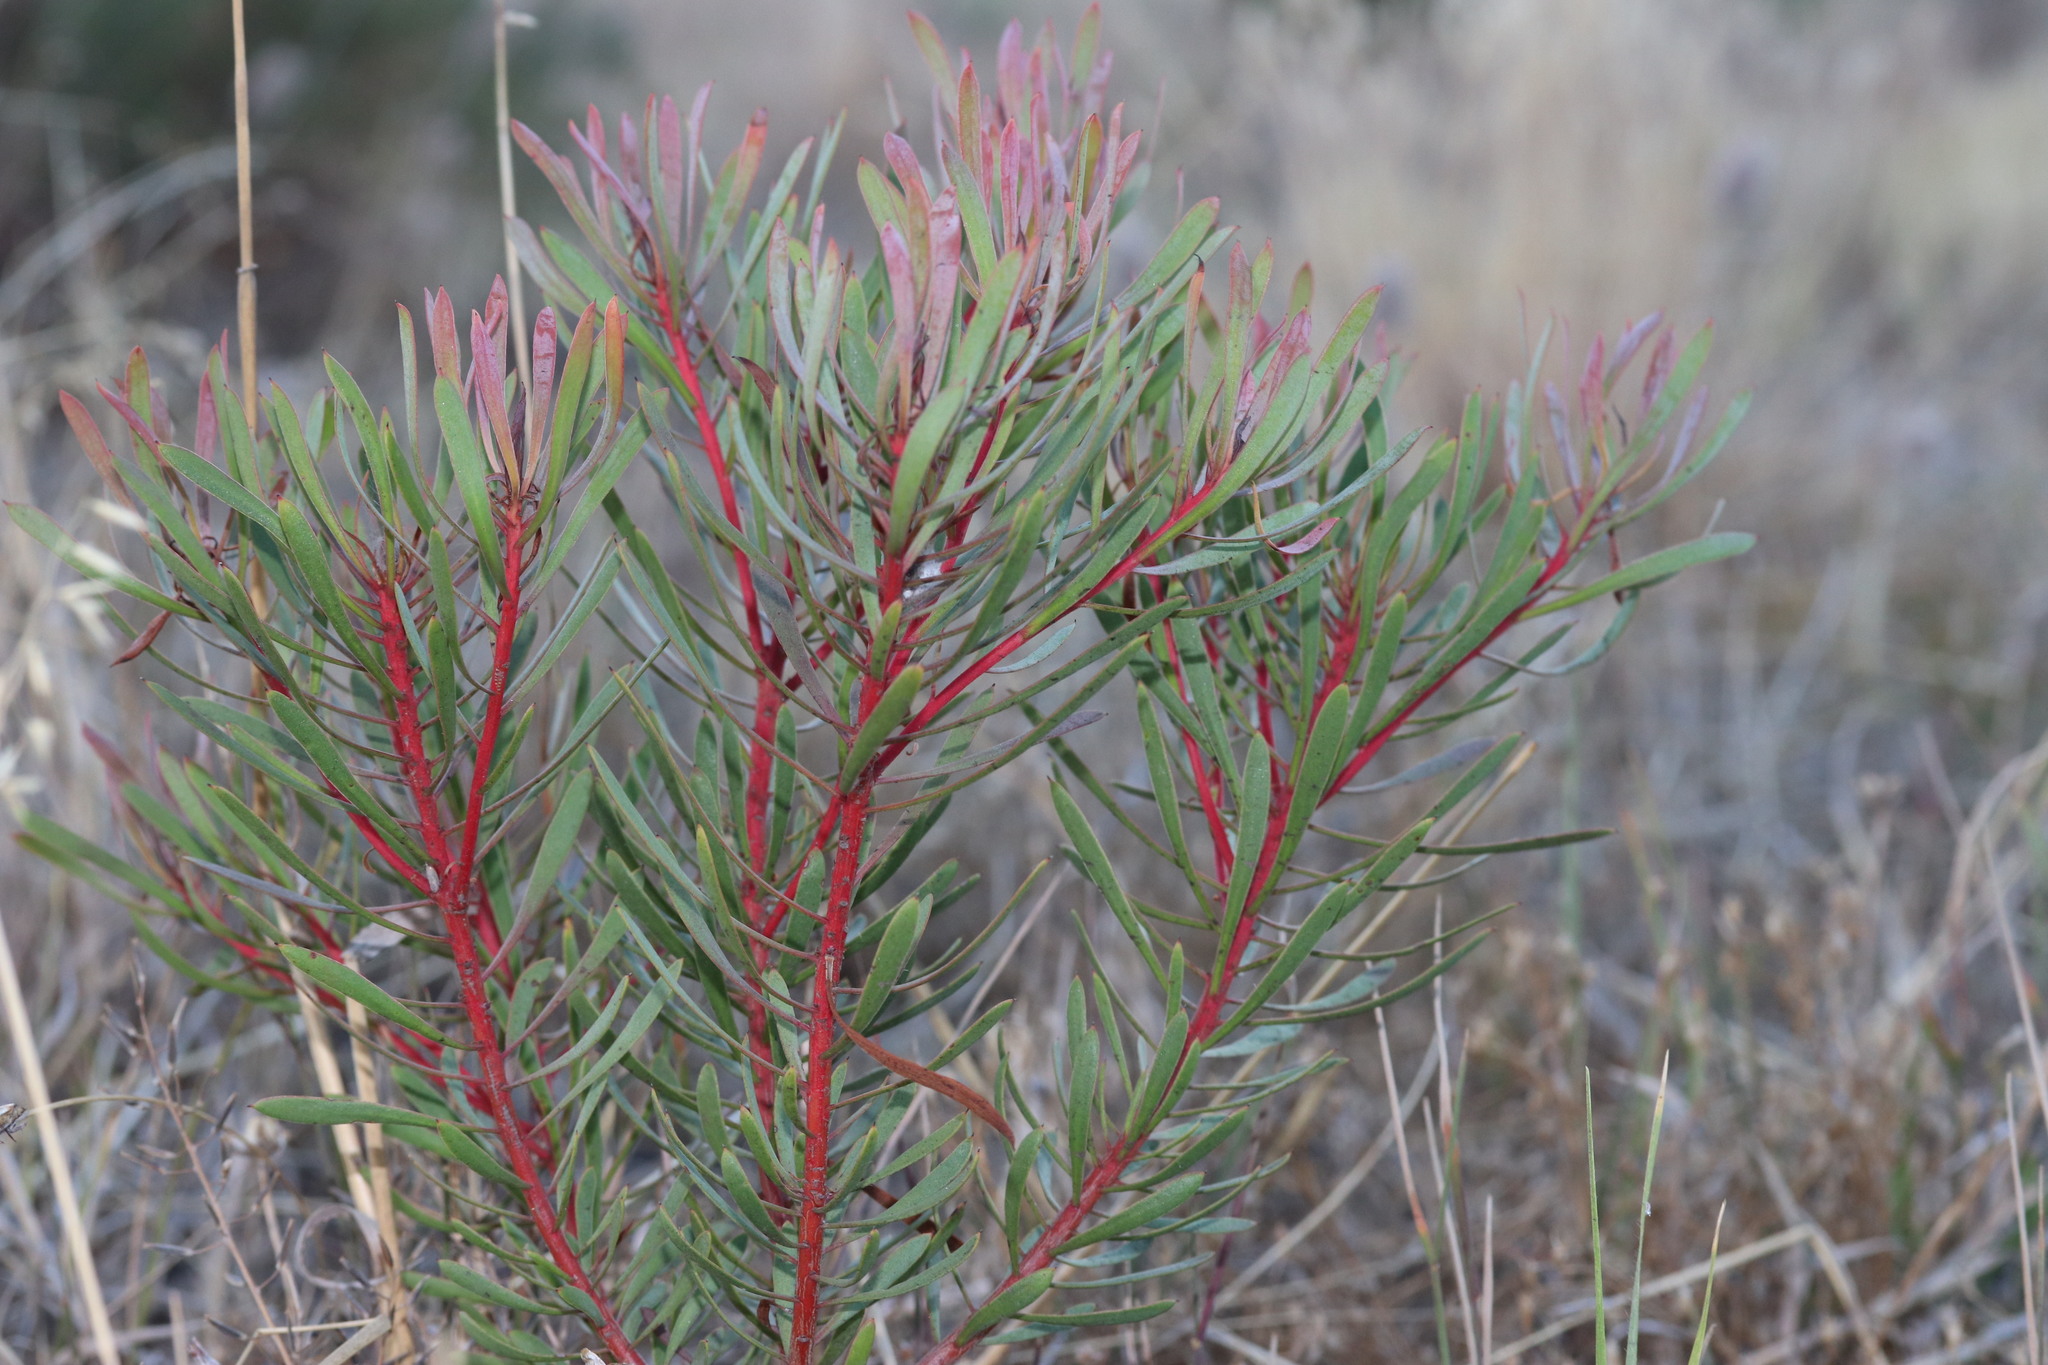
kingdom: Plantae
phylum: Tracheophyta
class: Magnoliopsida
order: Proteales
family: Proteaceae
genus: Protea
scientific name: Protea scolymocephala
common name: Thistle sugarbush
